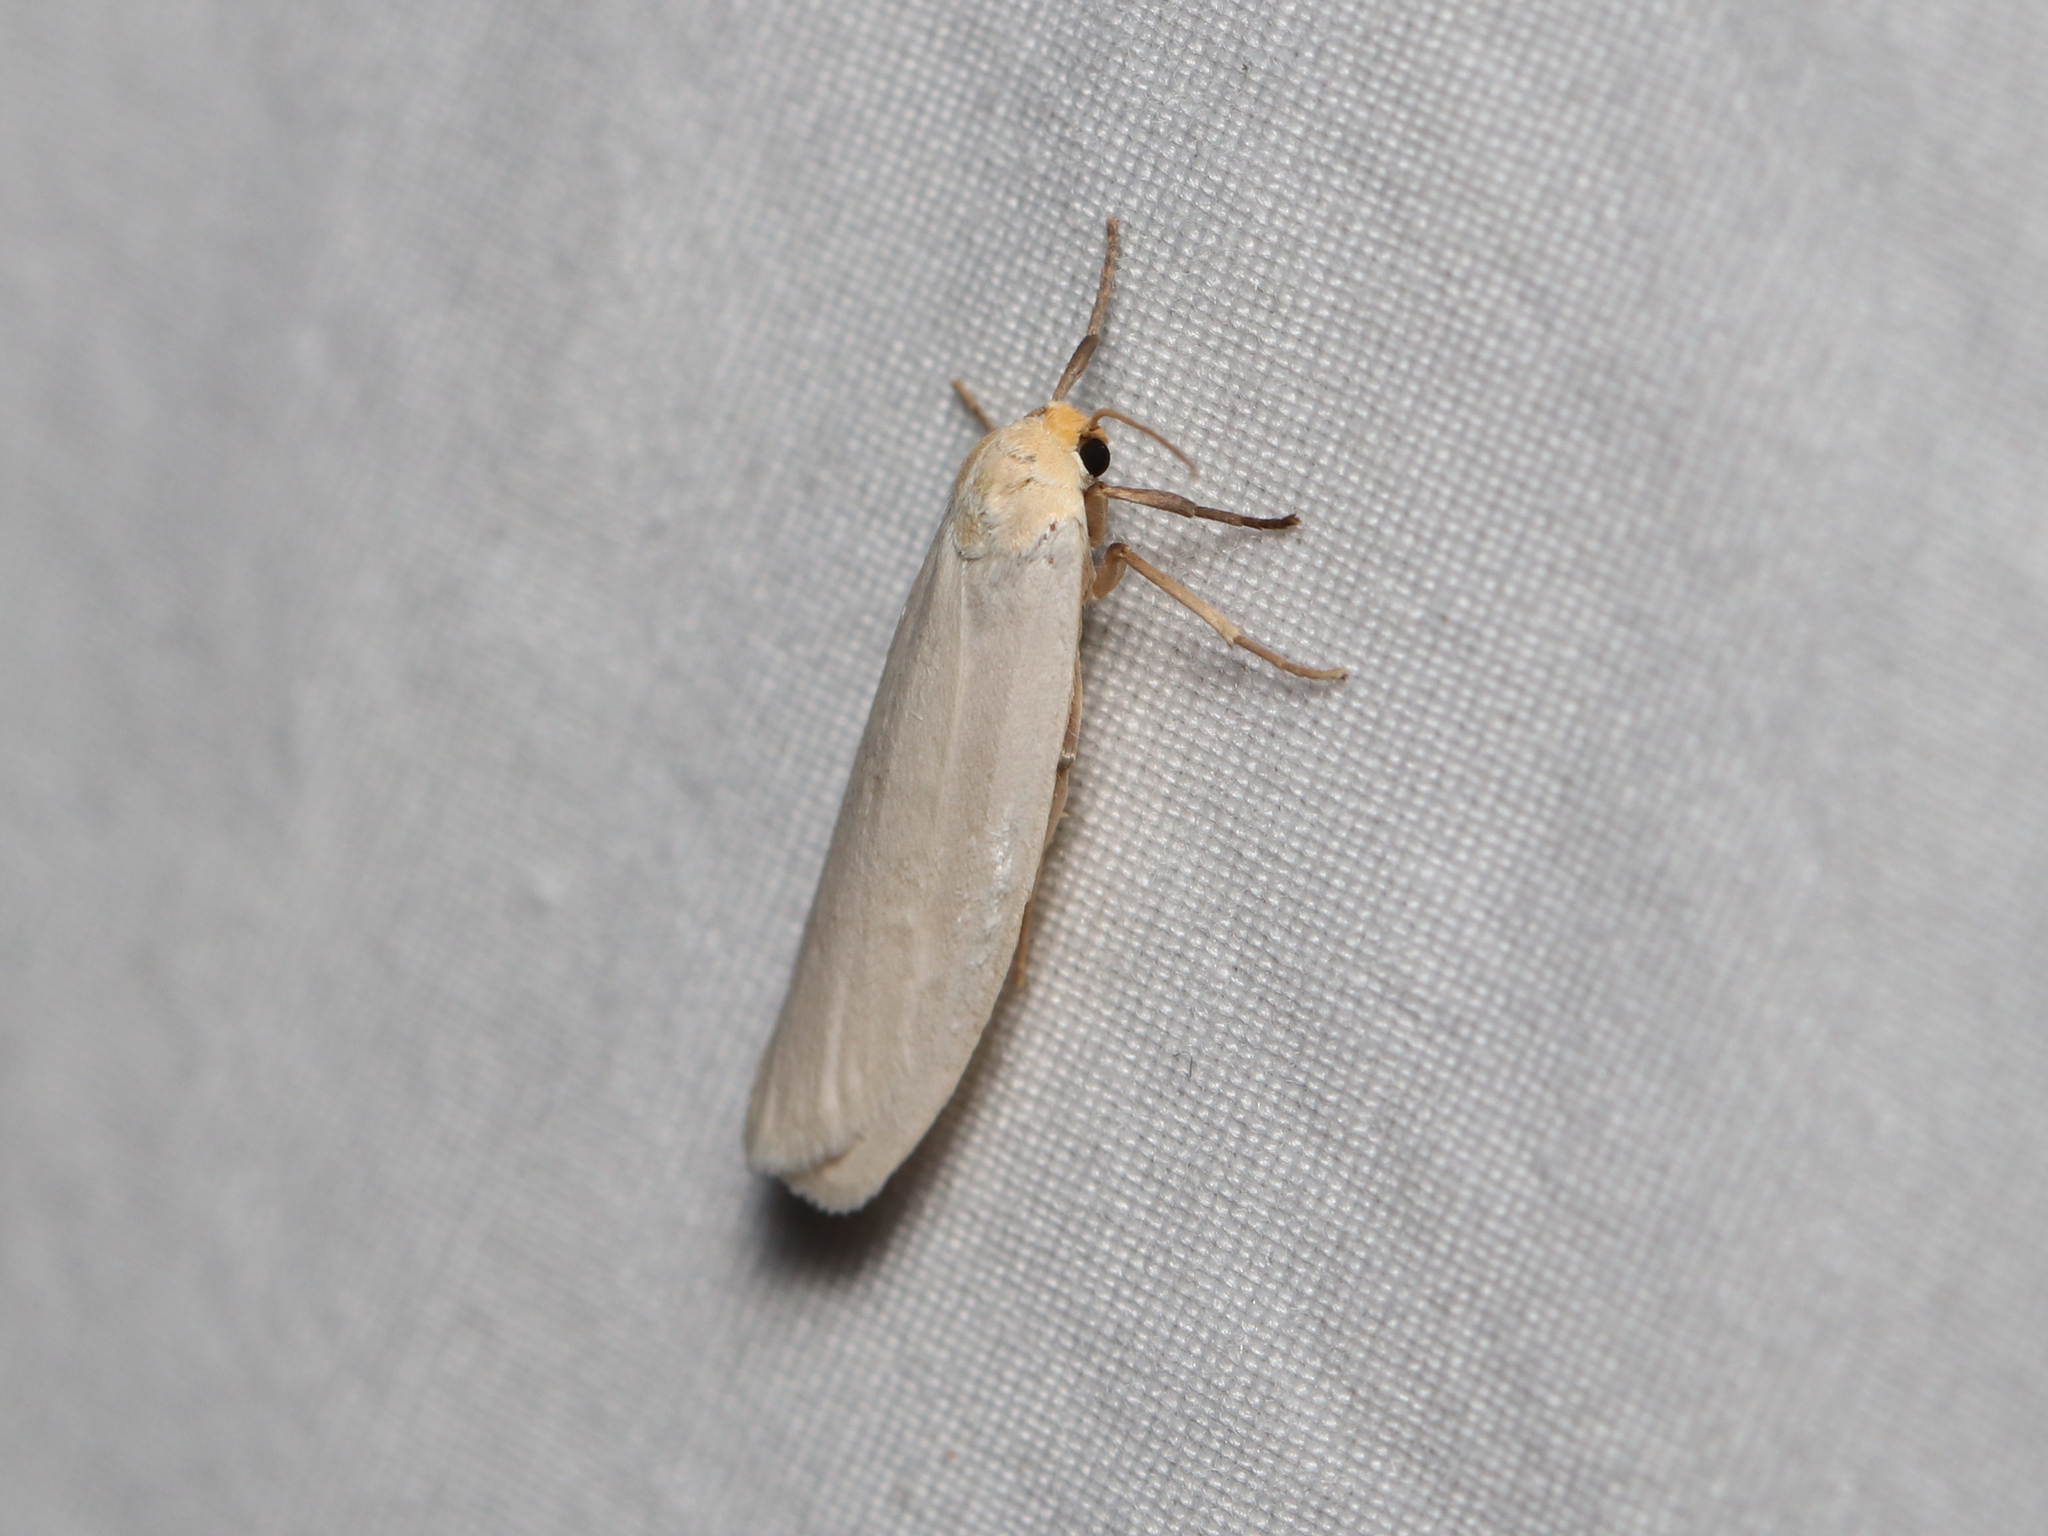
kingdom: Animalia
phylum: Arthropoda
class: Insecta
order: Lepidoptera
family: Erebidae
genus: Crambidia
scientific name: Crambidia xanthocorpa
